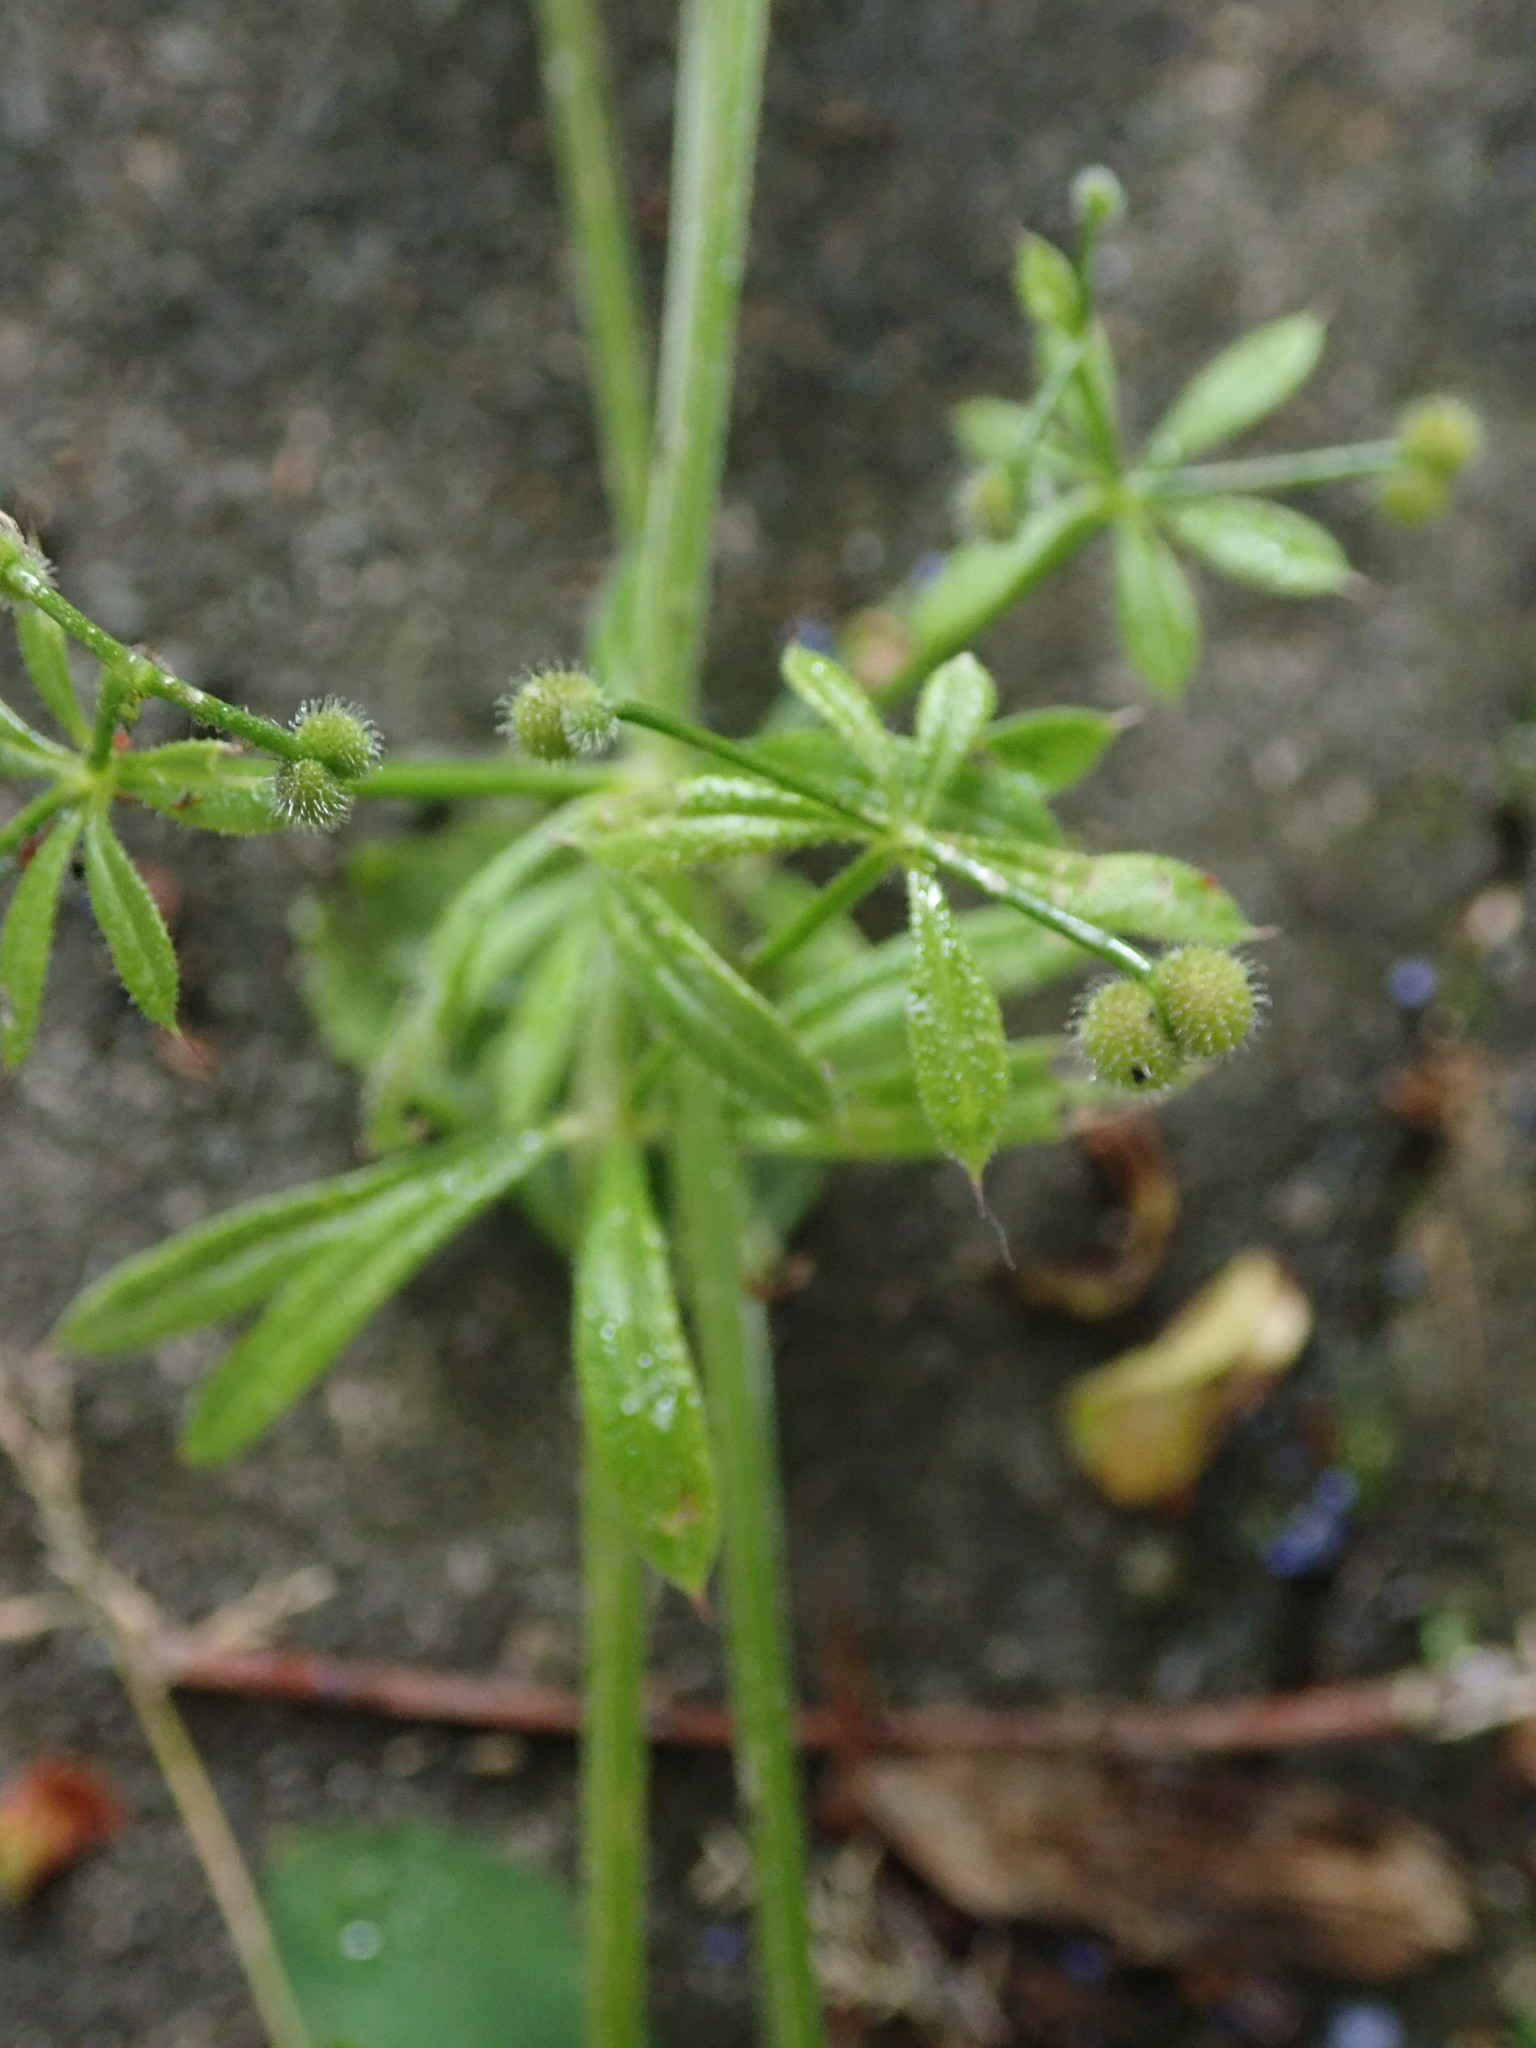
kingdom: Plantae
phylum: Tracheophyta
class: Magnoliopsida
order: Gentianales
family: Rubiaceae
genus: Galium
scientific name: Galium aparine
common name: Cleavers
